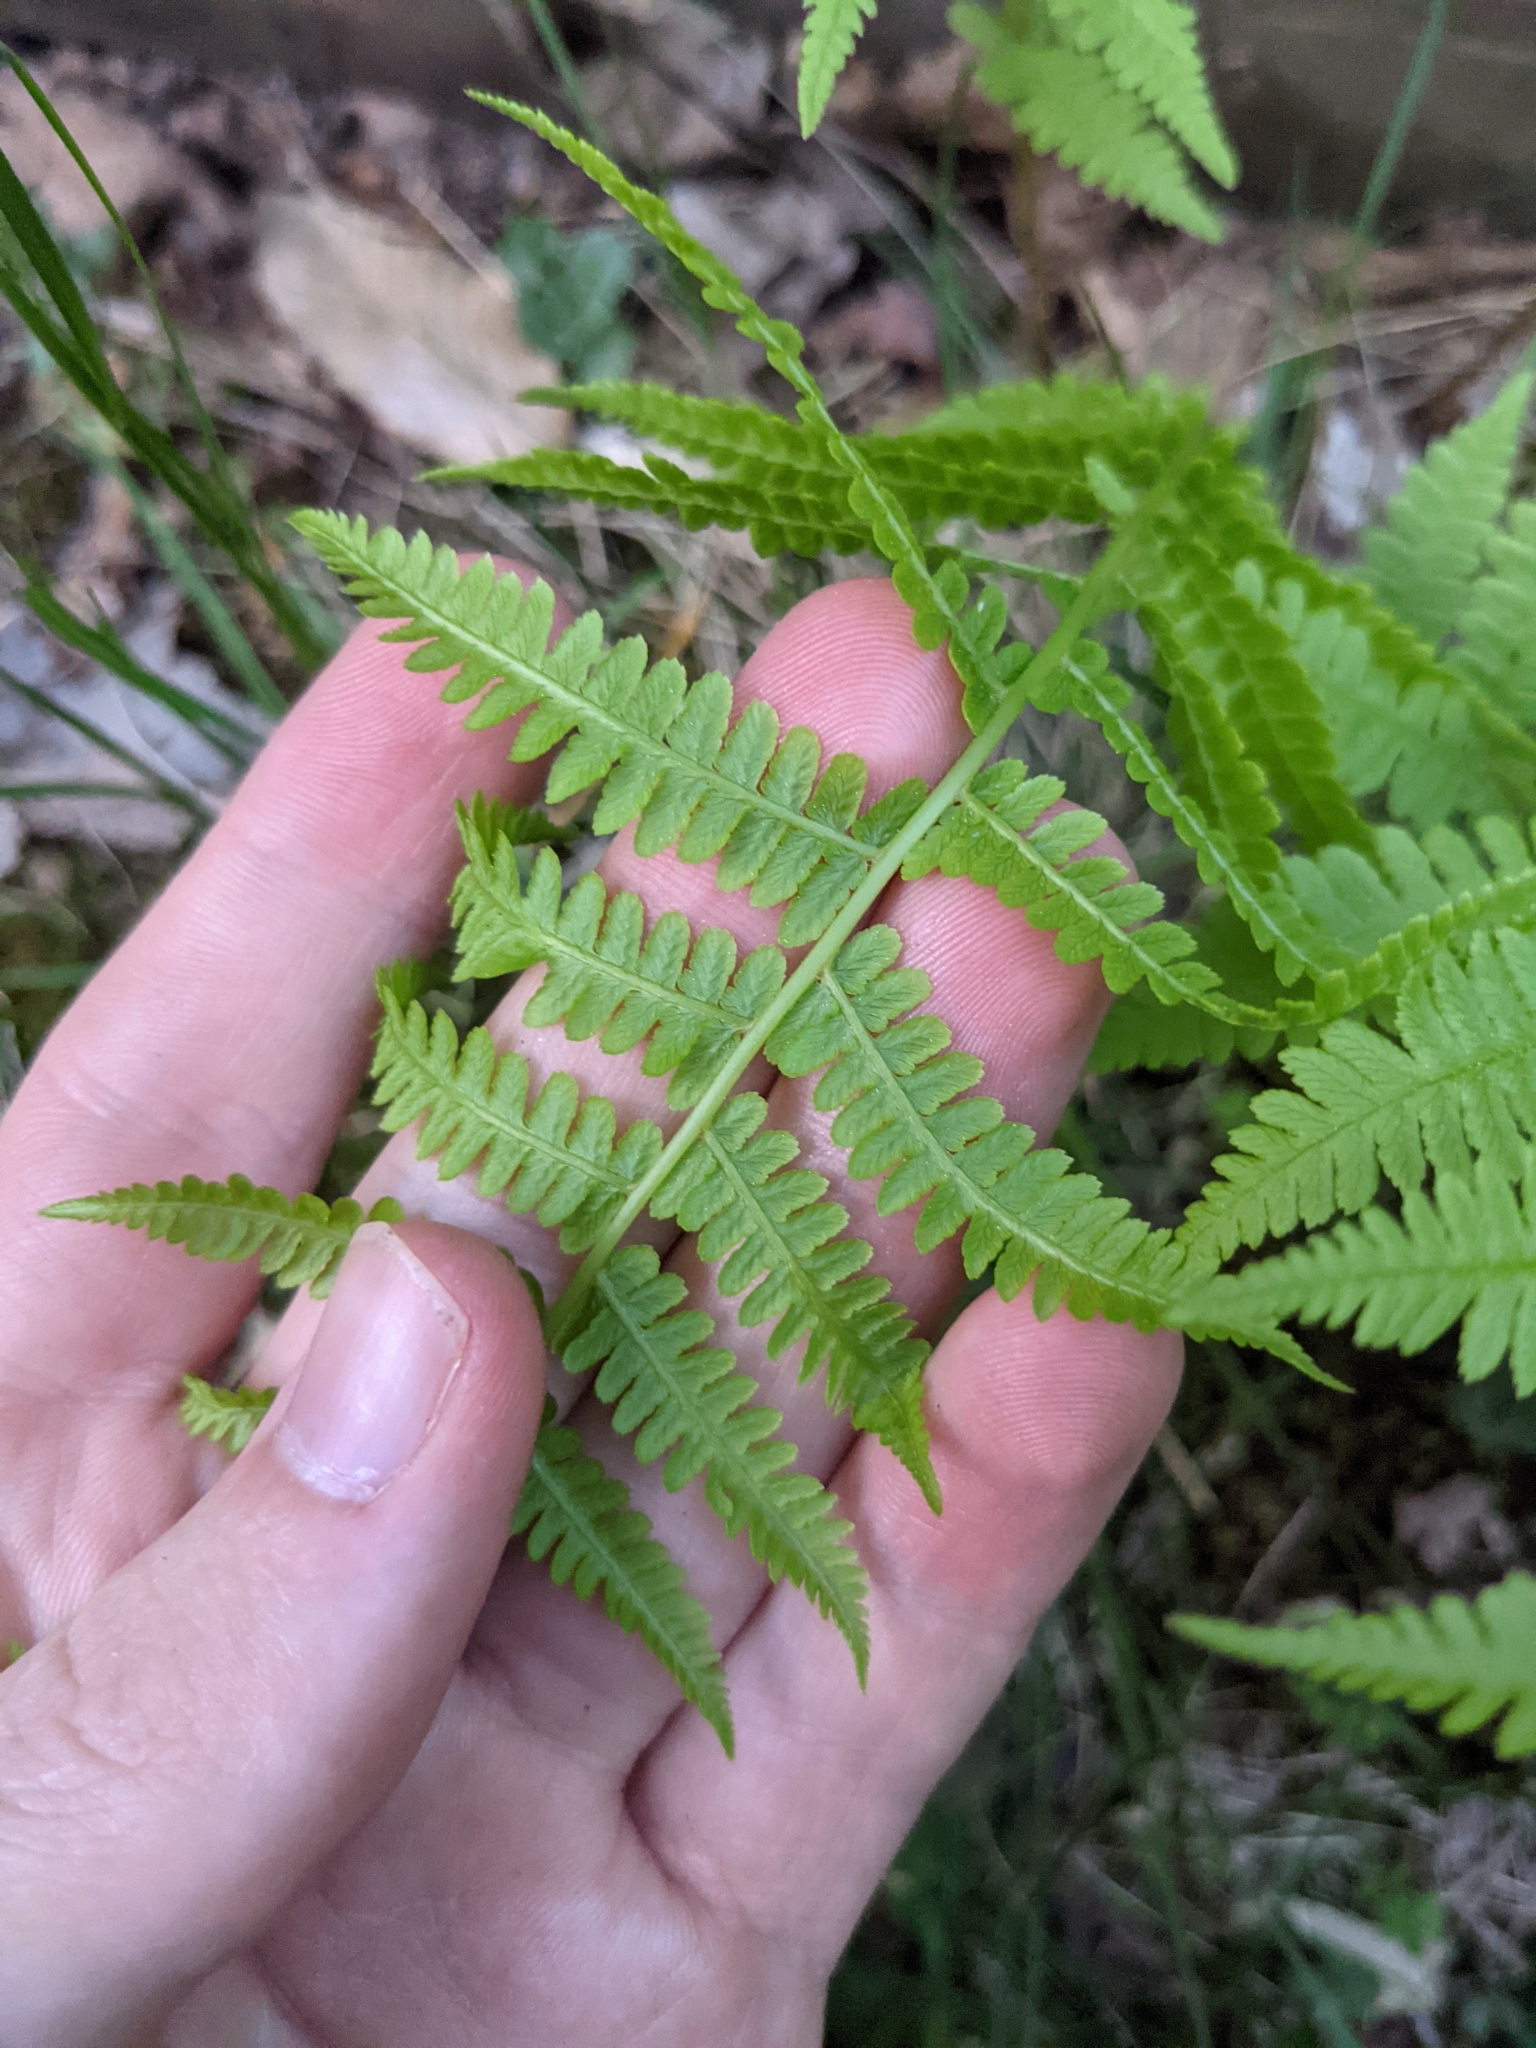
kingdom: Plantae
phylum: Tracheophyta
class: Polypodiopsida
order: Polypodiales
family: Athyriaceae
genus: Athyrium
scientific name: Athyrium angustum
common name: Northern lady fern
